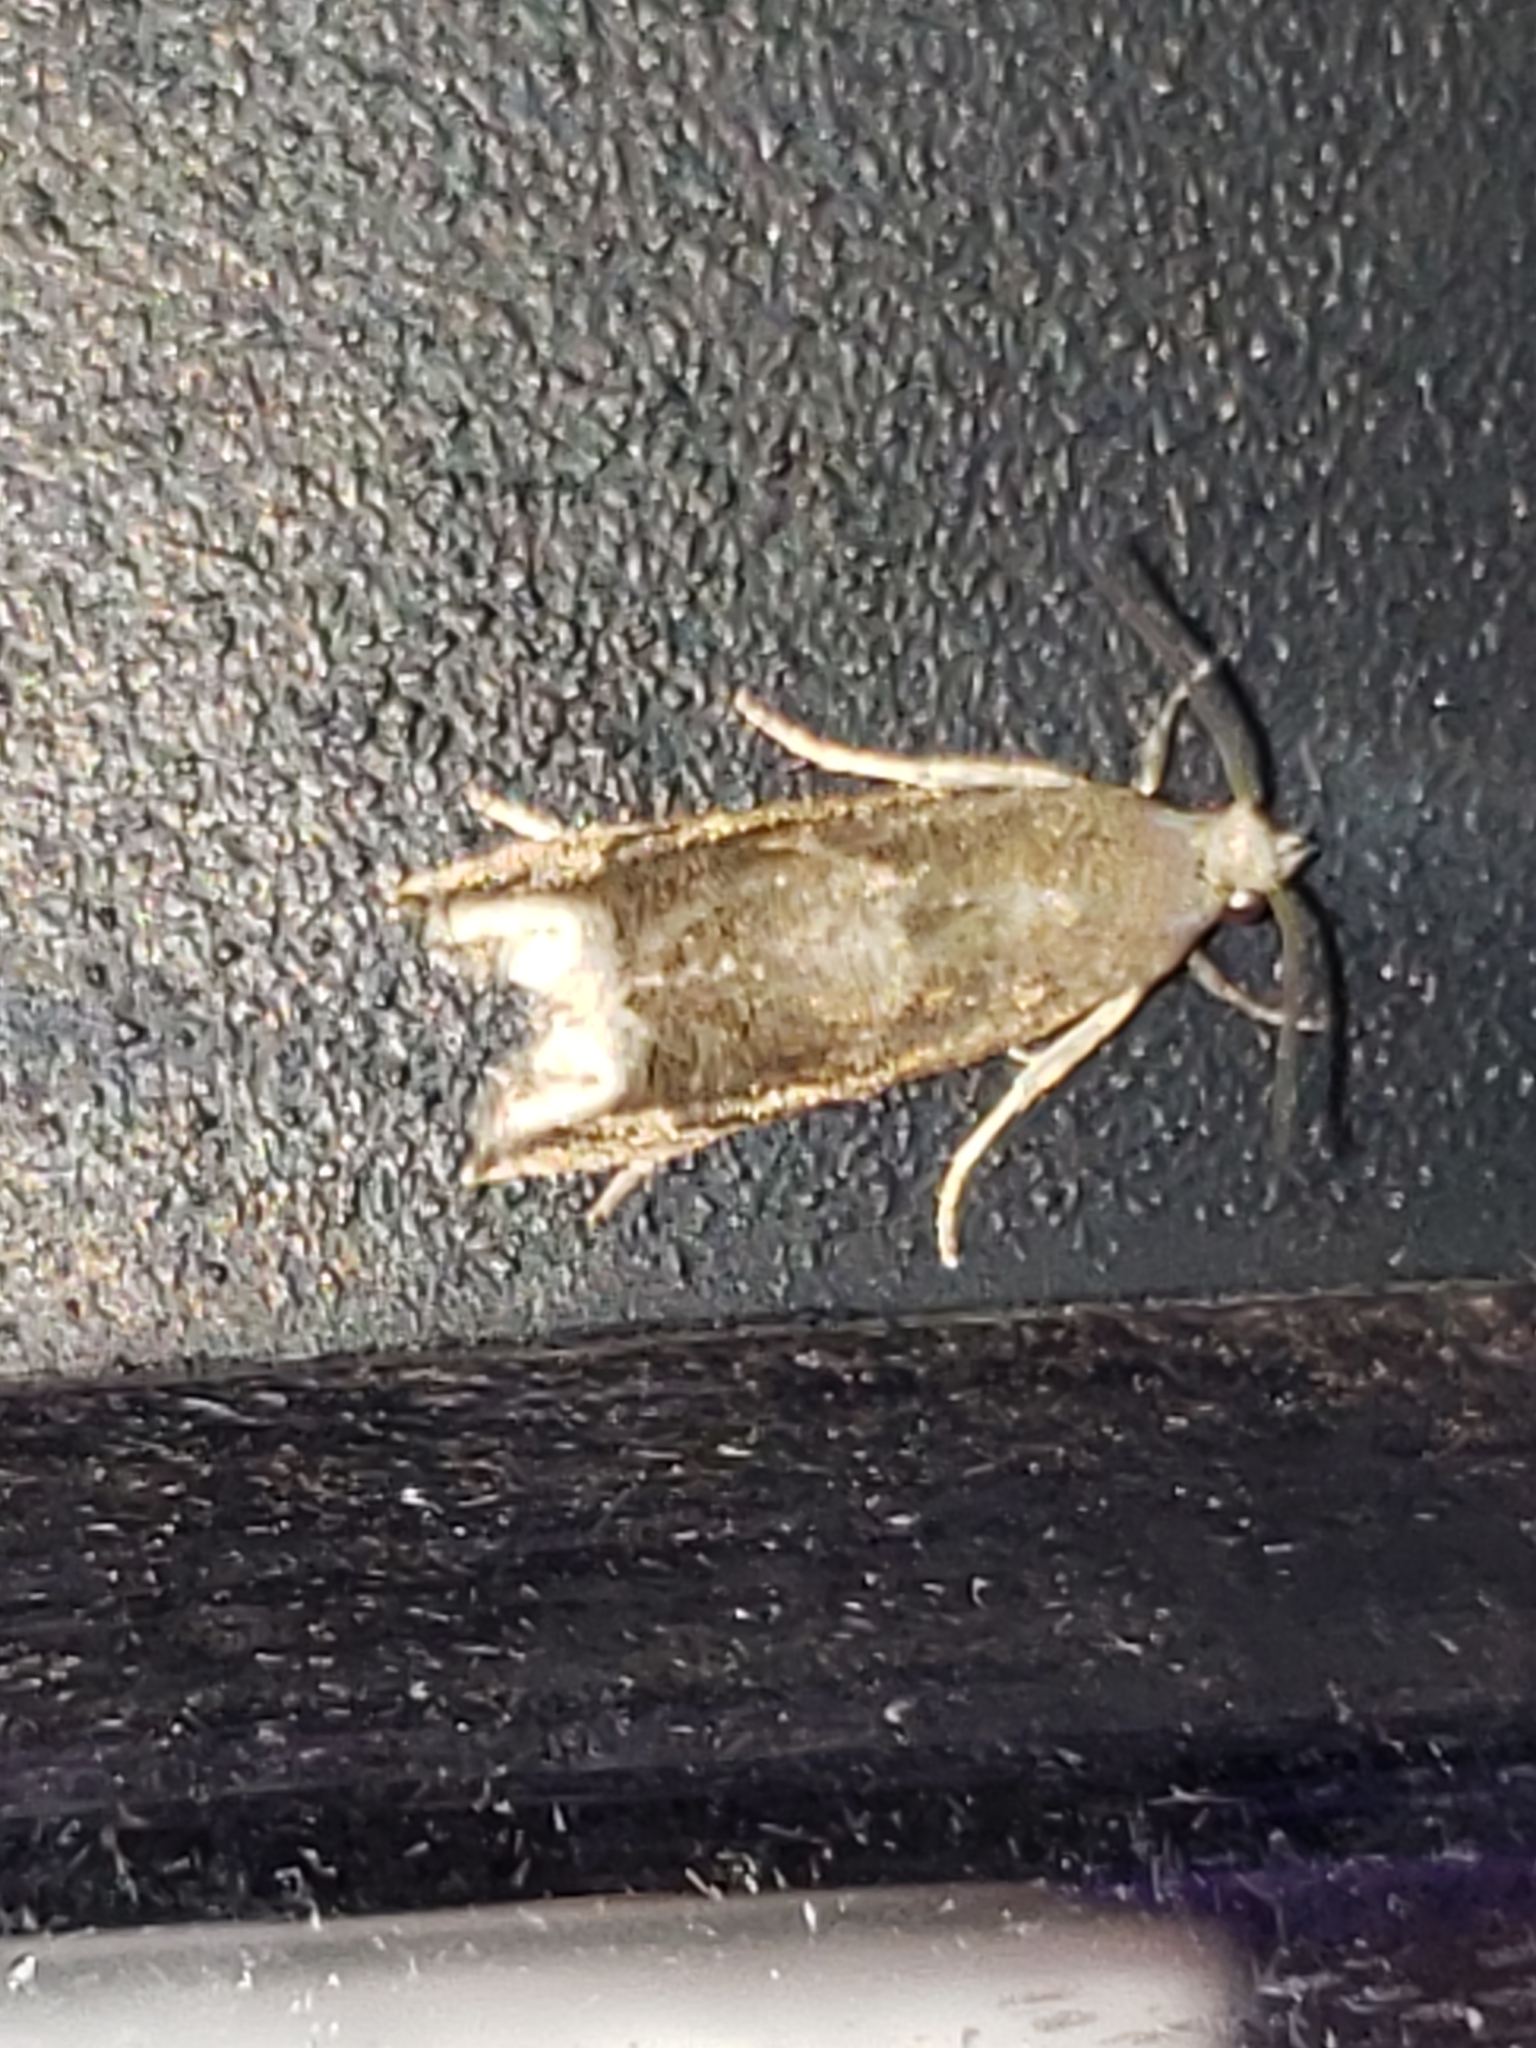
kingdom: Animalia
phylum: Arthropoda
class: Insecta
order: Lepidoptera
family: Tortricidae
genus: Epiblema
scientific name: Epiblema strenuana
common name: Ragweed borer moth
